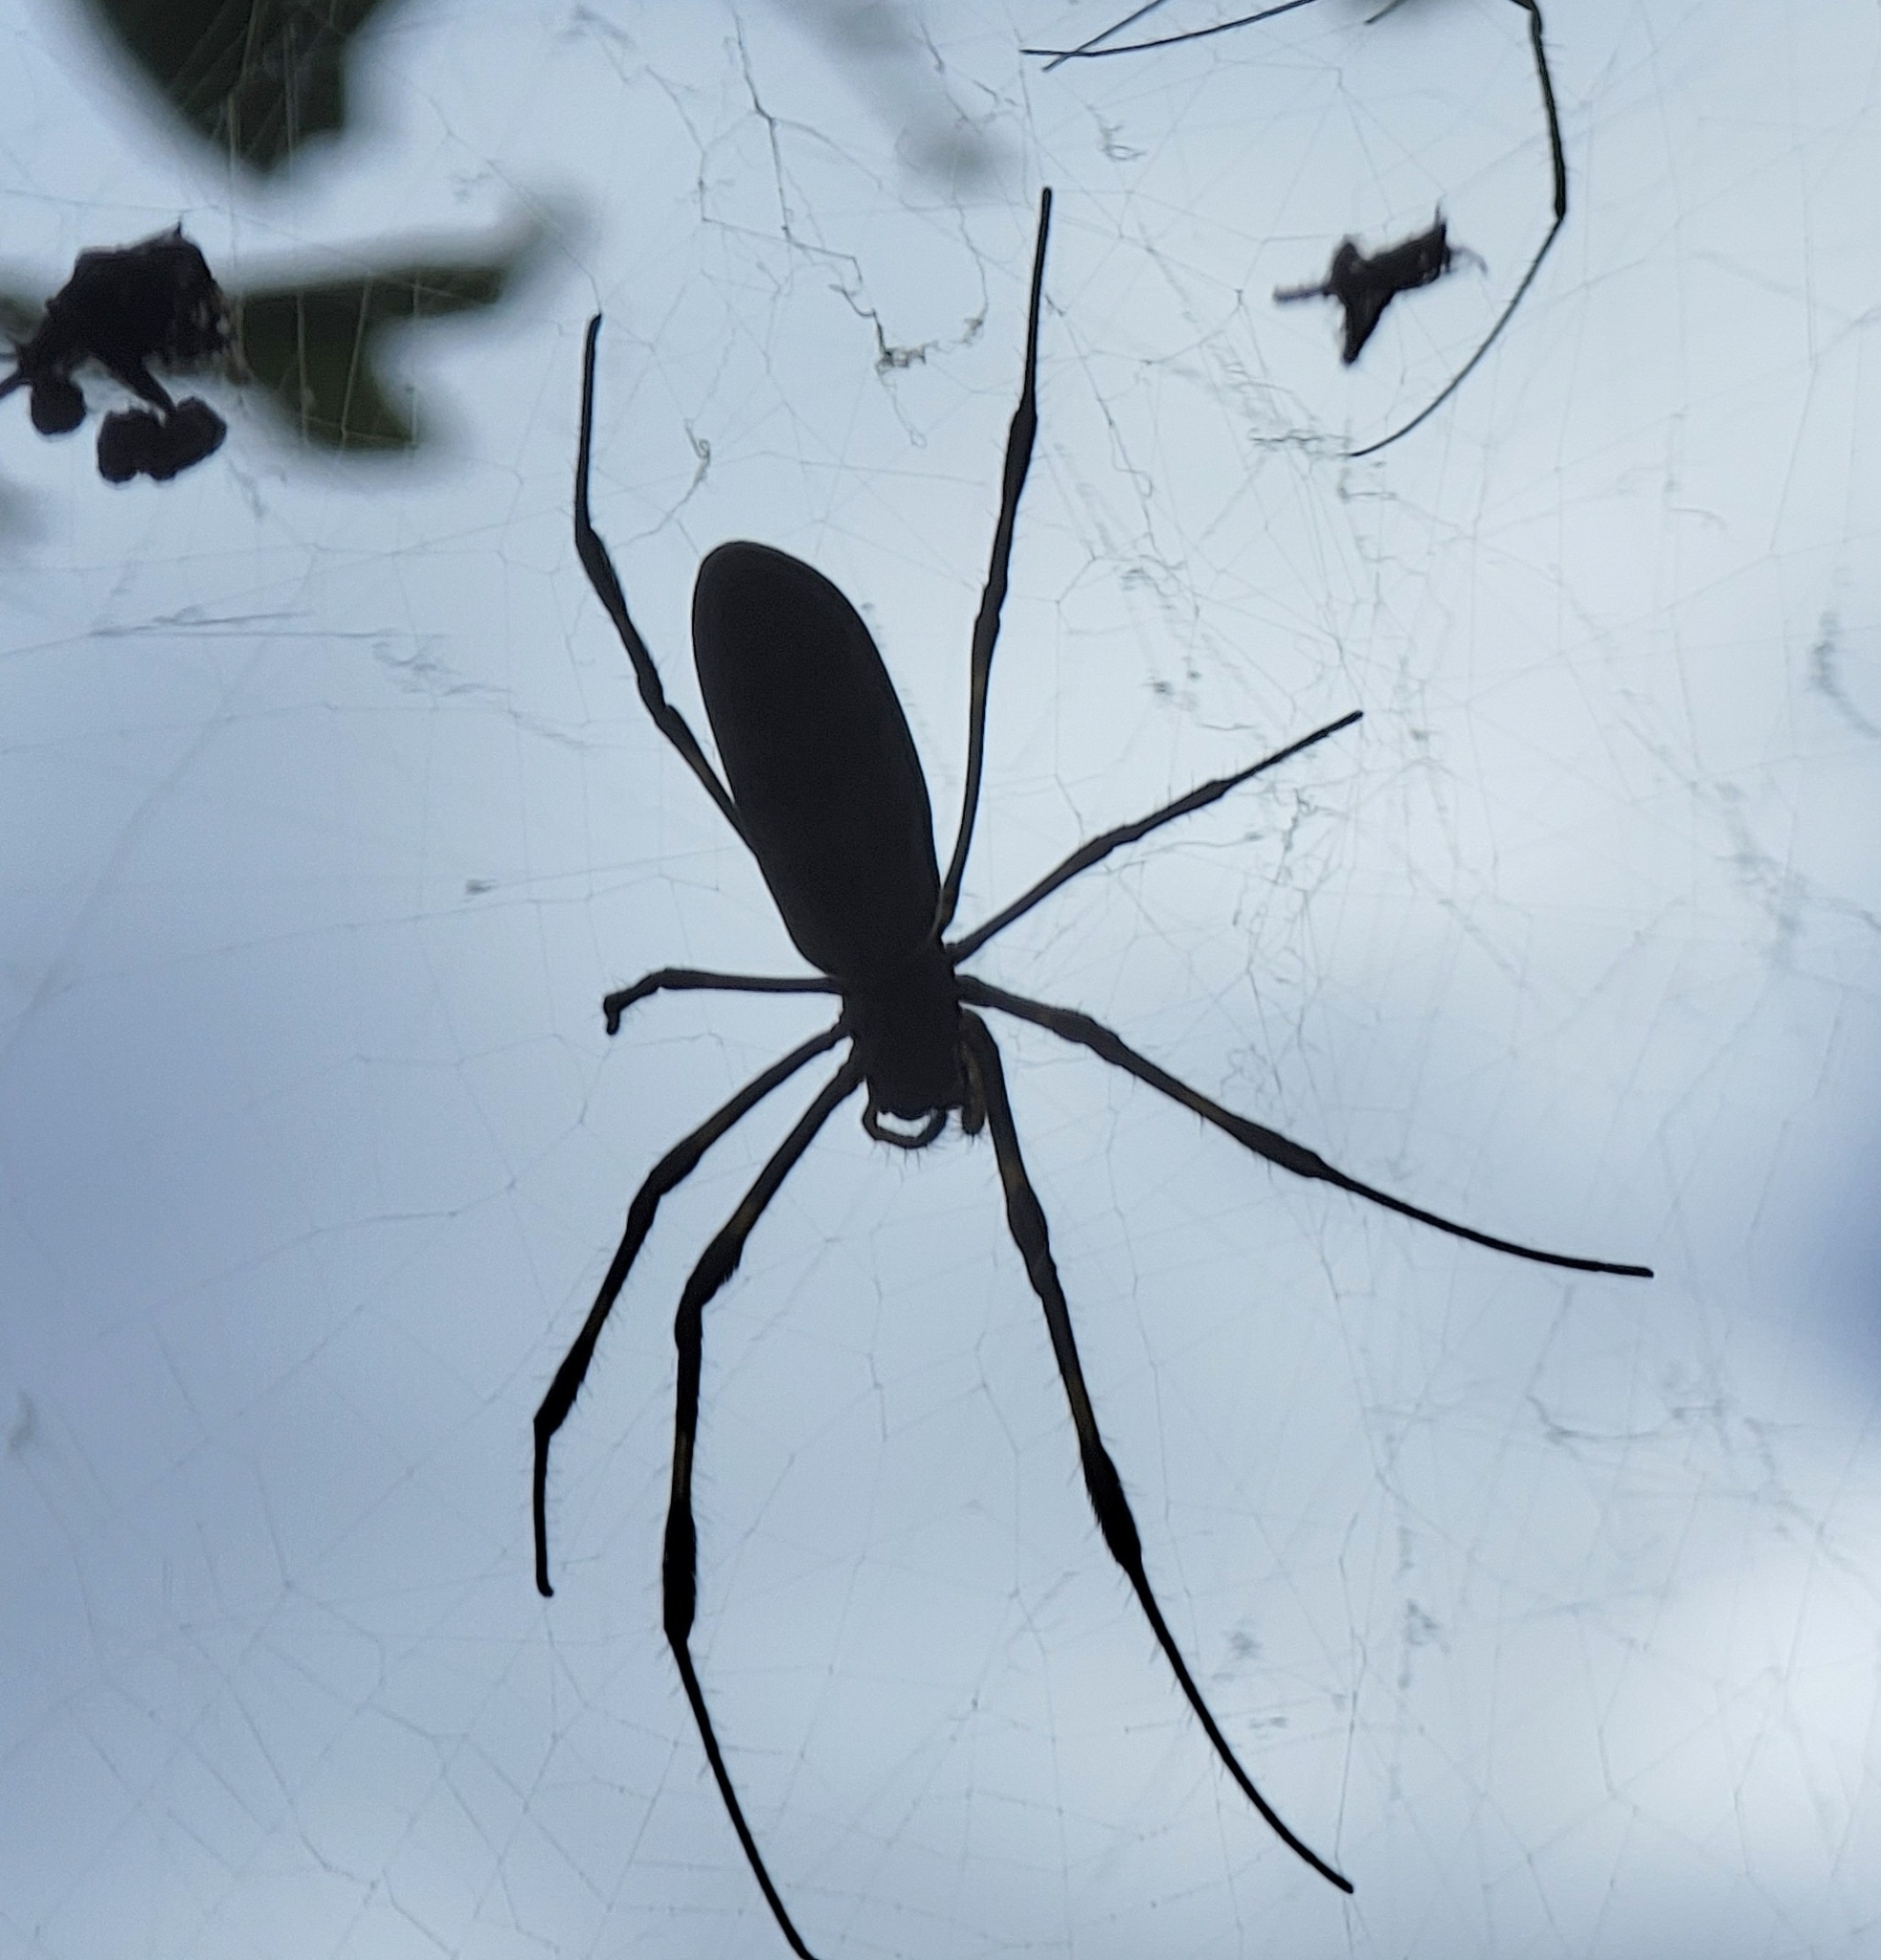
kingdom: Animalia
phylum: Arthropoda
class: Arachnida
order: Araneae
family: Araneidae
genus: Trichonephila
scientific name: Trichonephila clavata
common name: Jorō spider
